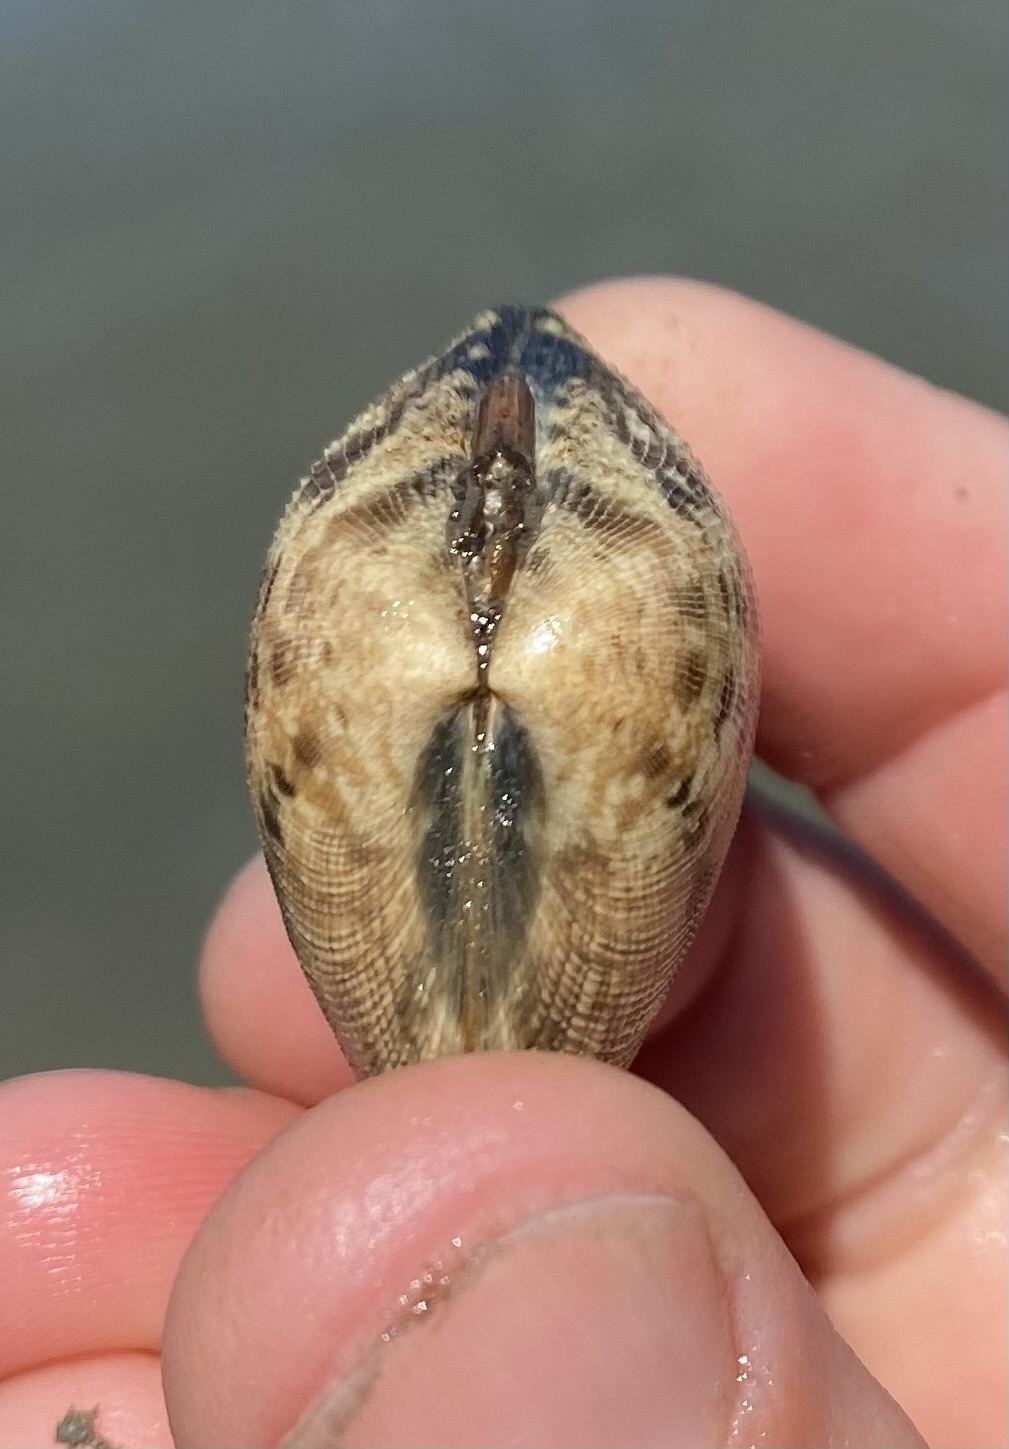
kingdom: Animalia
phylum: Mollusca
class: Bivalvia
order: Venerida
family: Veneridae
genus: Ruditapes
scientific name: Ruditapes philippinarum
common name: Manila clam
